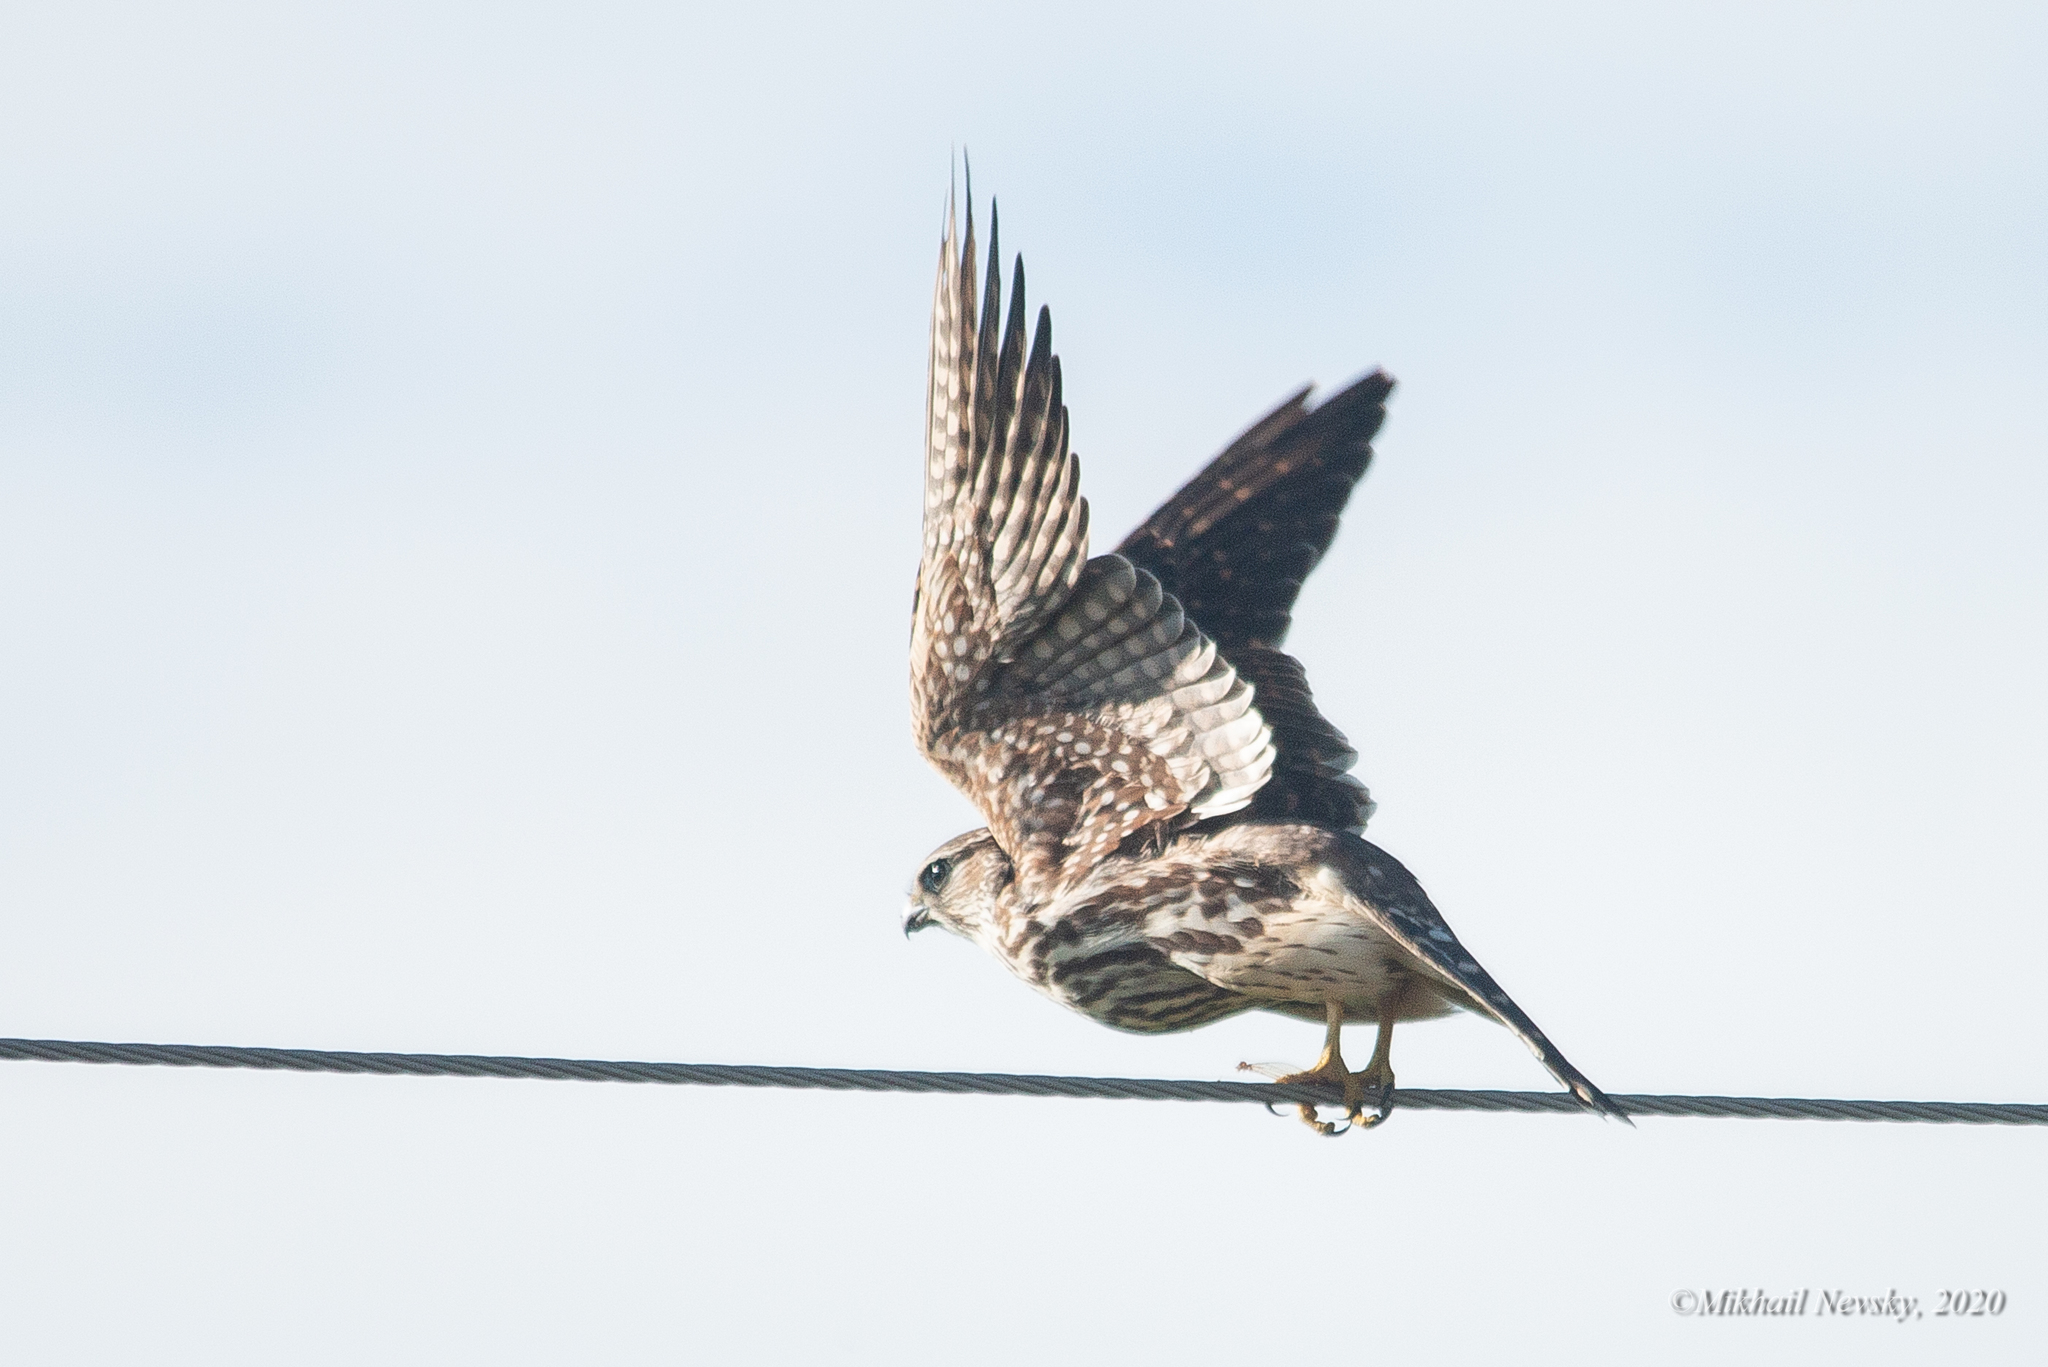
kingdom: Animalia
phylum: Chordata
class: Aves
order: Falconiformes
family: Falconidae
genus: Falco
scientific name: Falco columbarius
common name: Merlin
